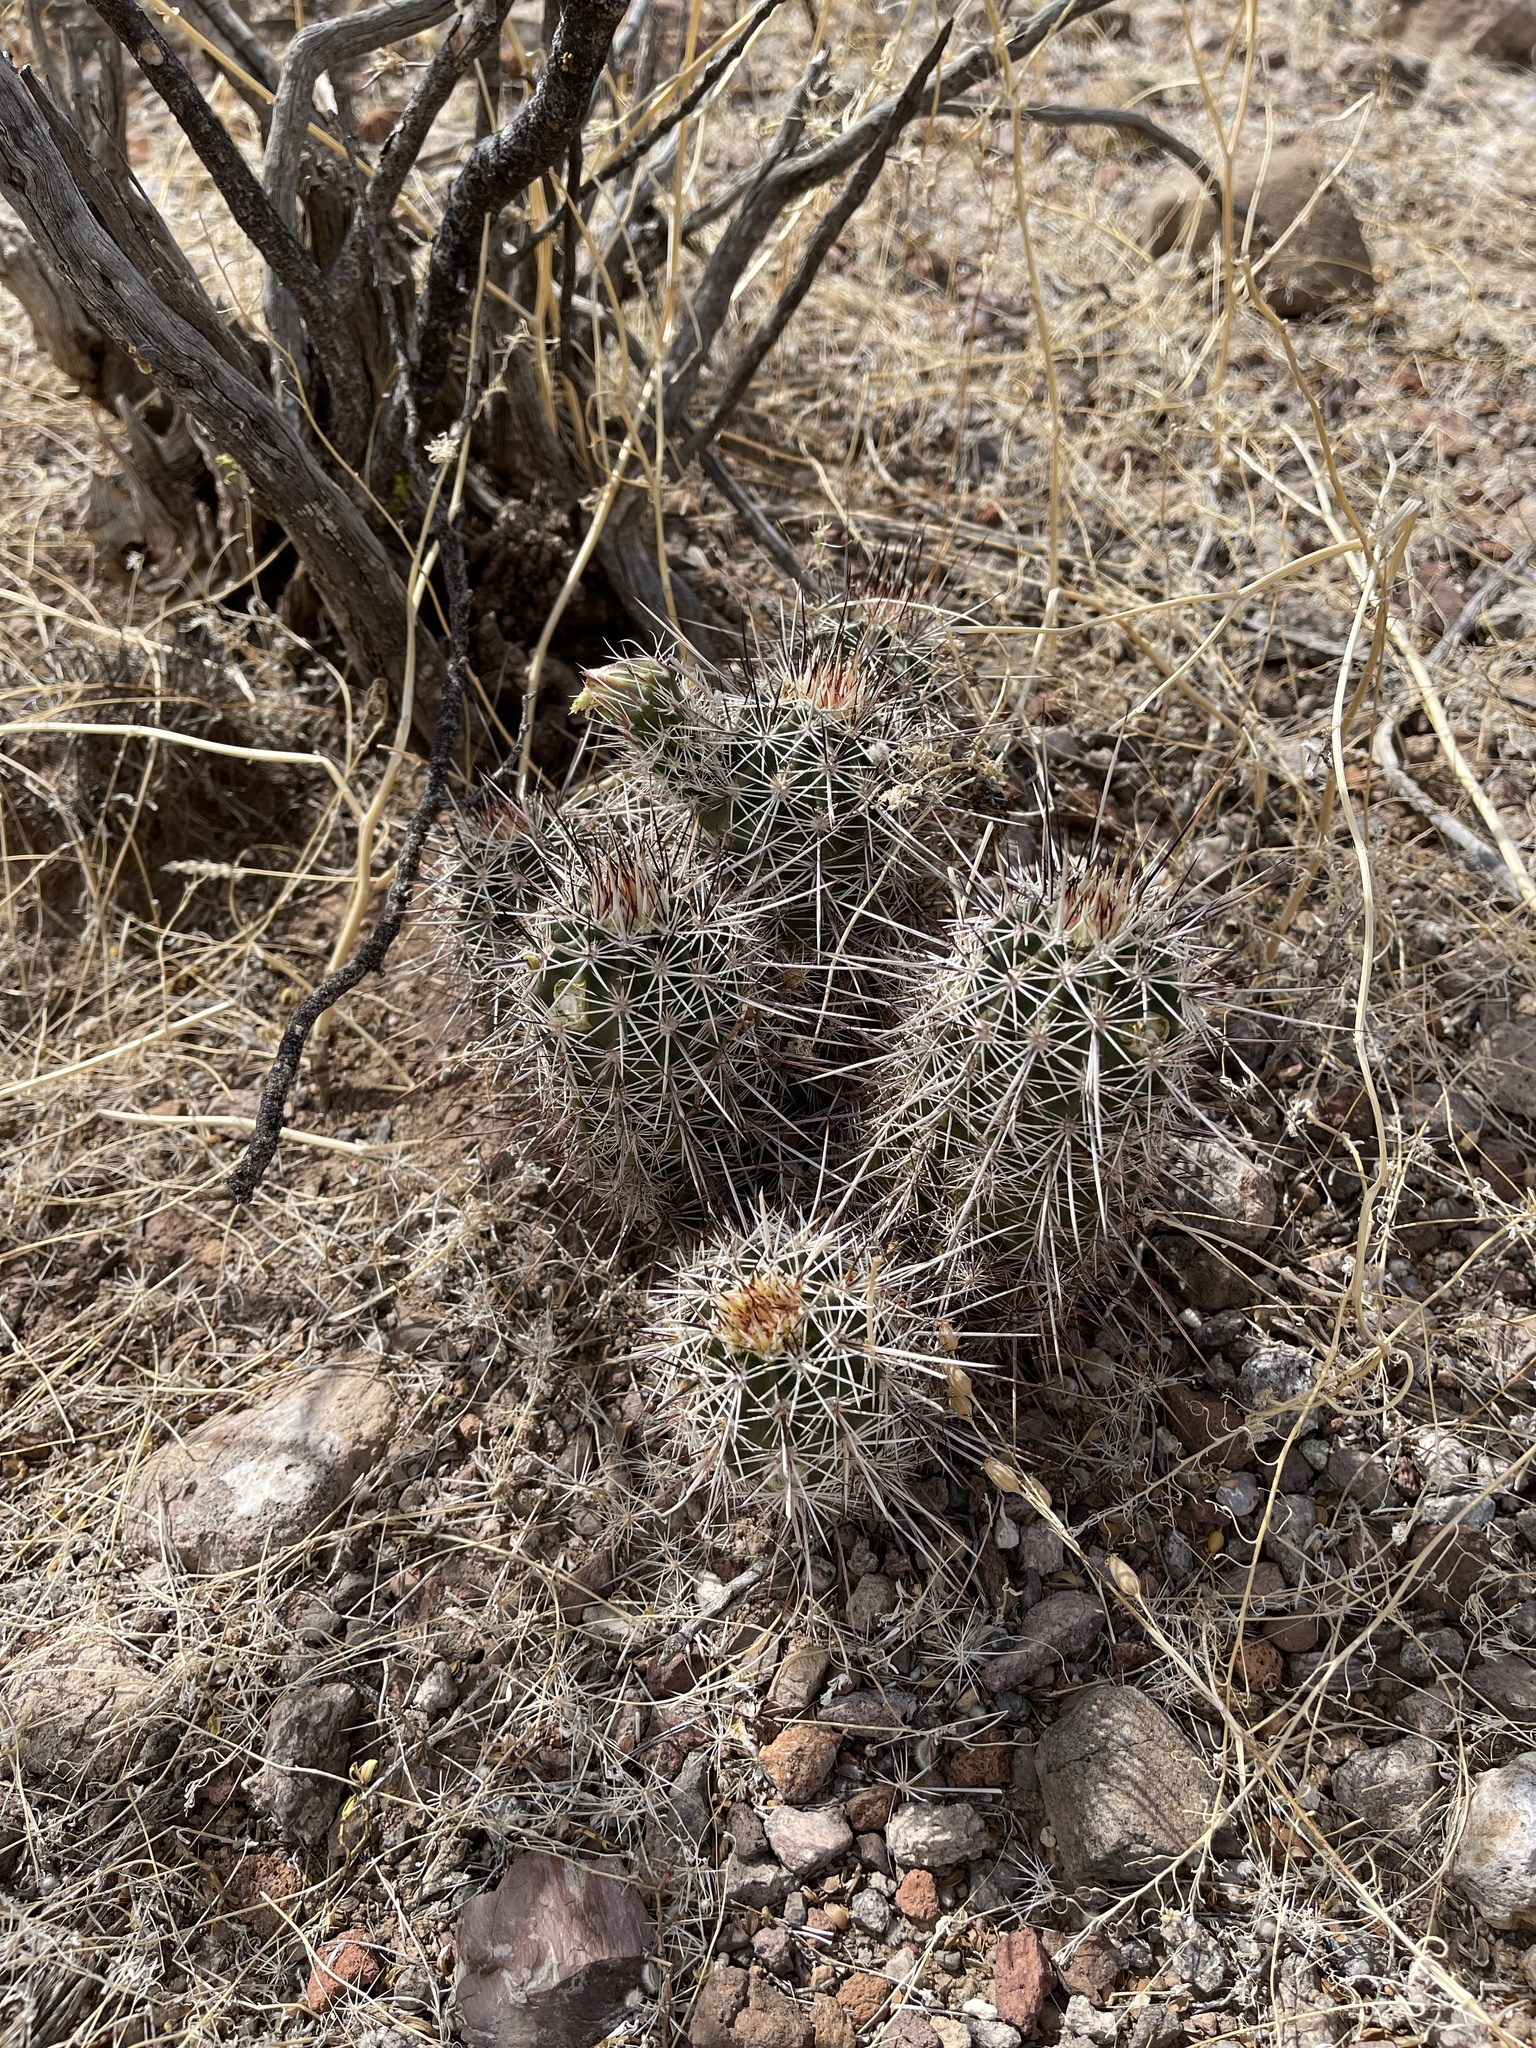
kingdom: Plantae
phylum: Tracheophyta
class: Magnoliopsida
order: Caryophyllales
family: Cactaceae
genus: Echinocereus
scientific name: Echinocereus fasciculatus
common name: Bundle hedgehog
